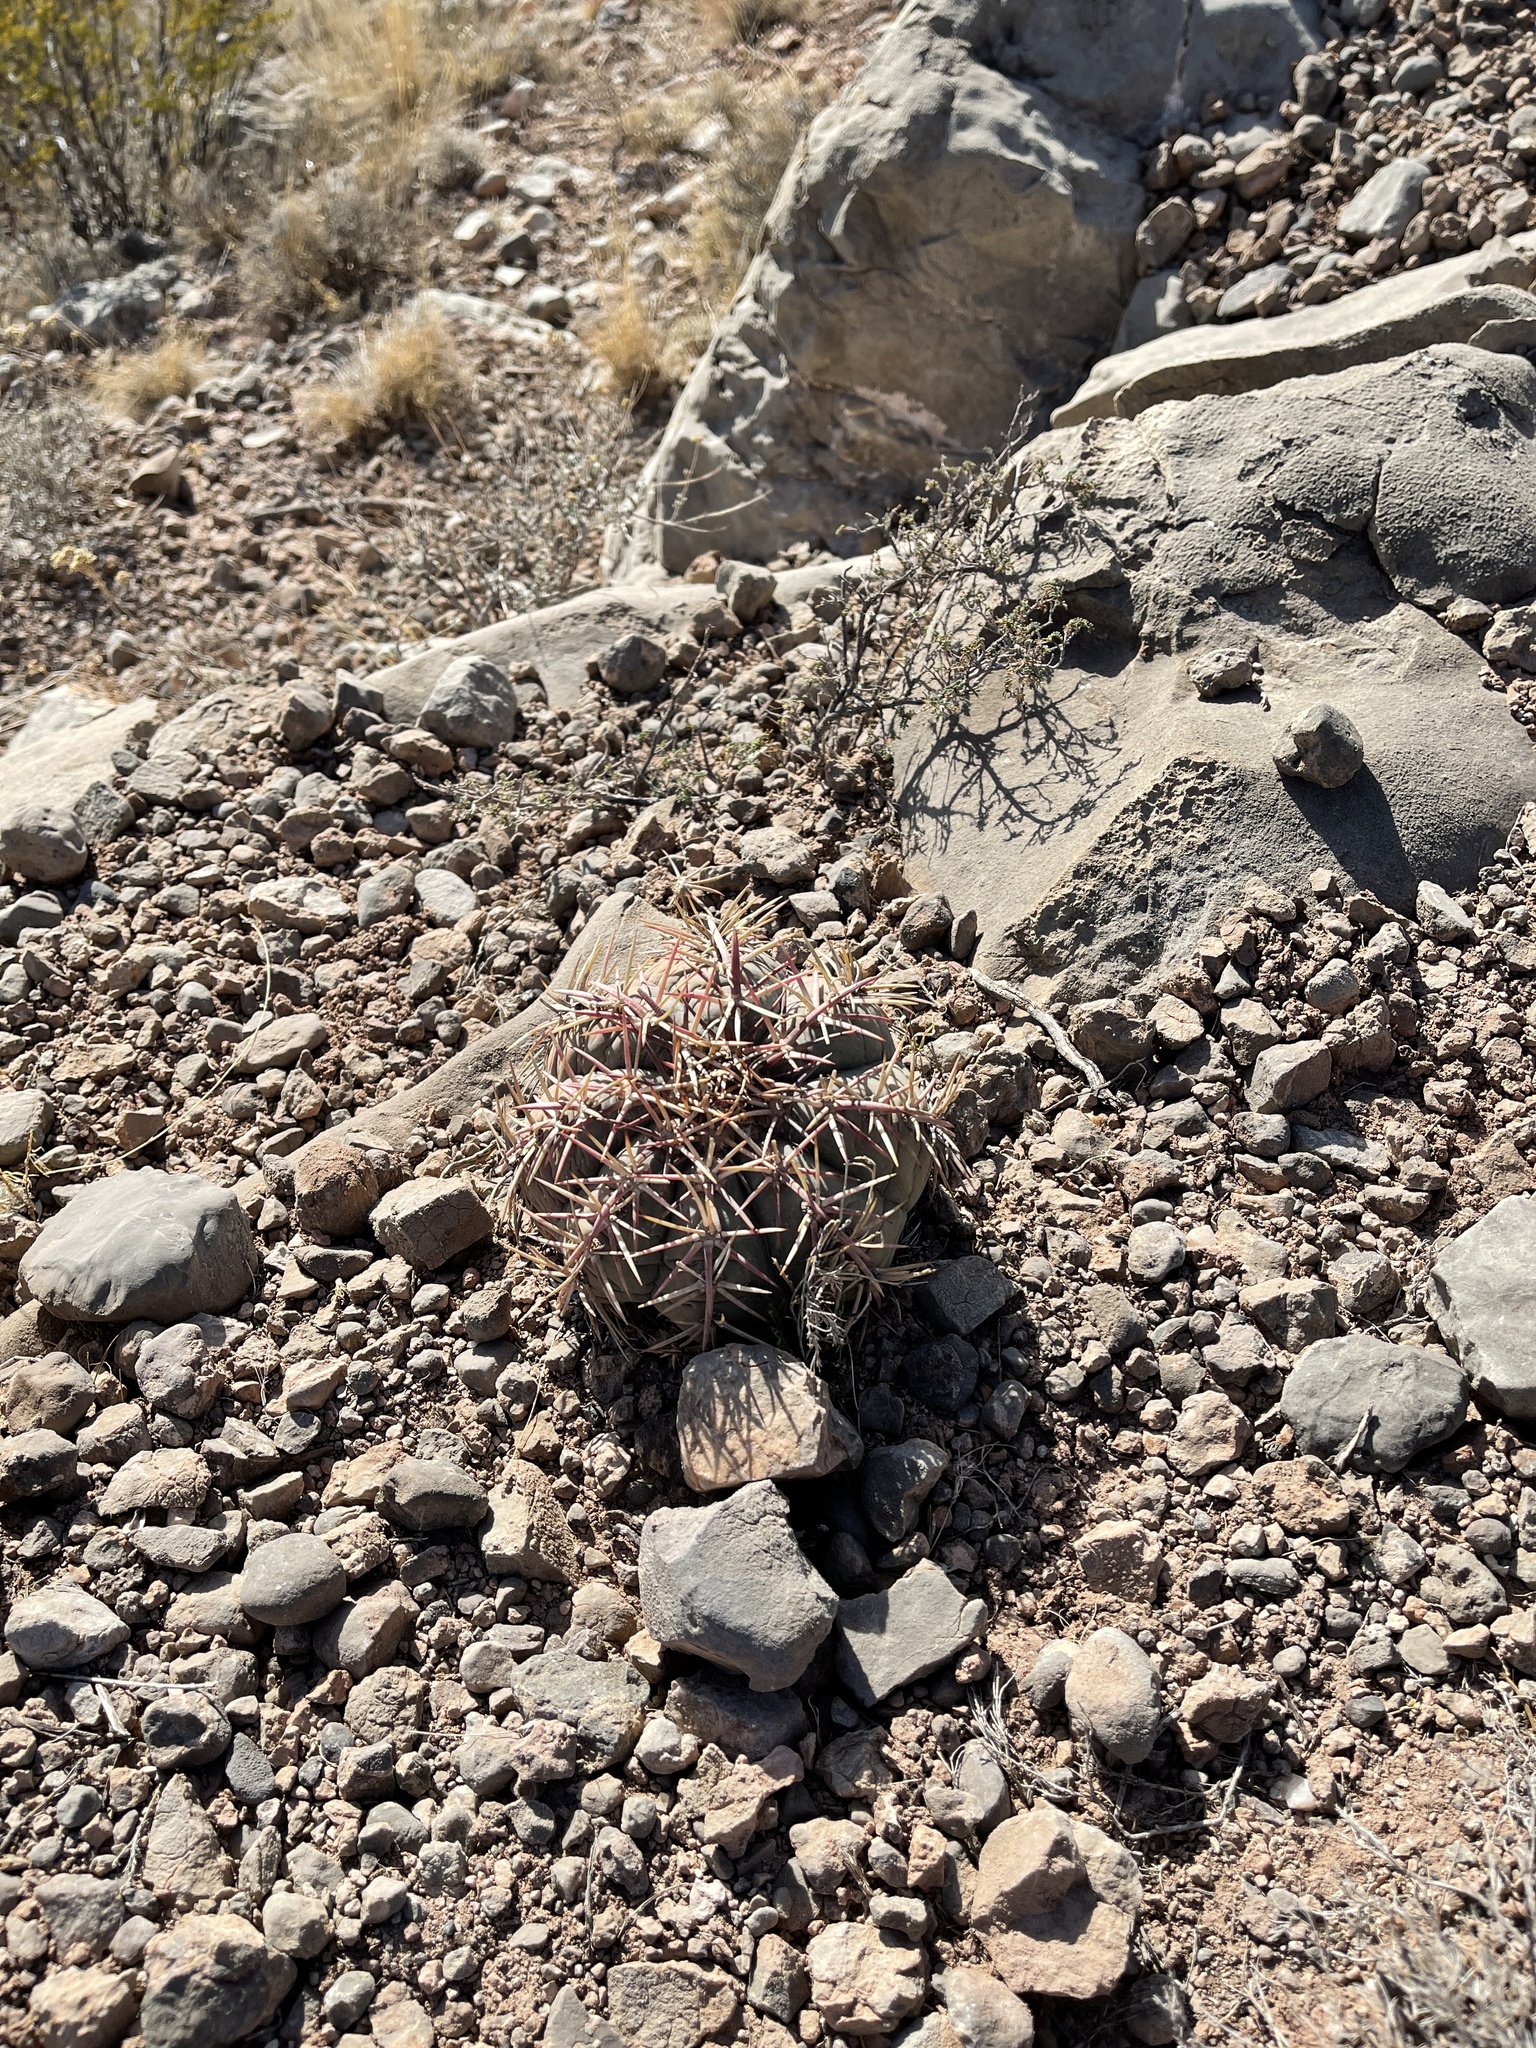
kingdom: Plantae
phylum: Tracheophyta
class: Magnoliopsida
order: Caryophyllales
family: Cactaceae
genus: Echinocactus
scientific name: Echinocactus horizonthalonius
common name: Devilshead
